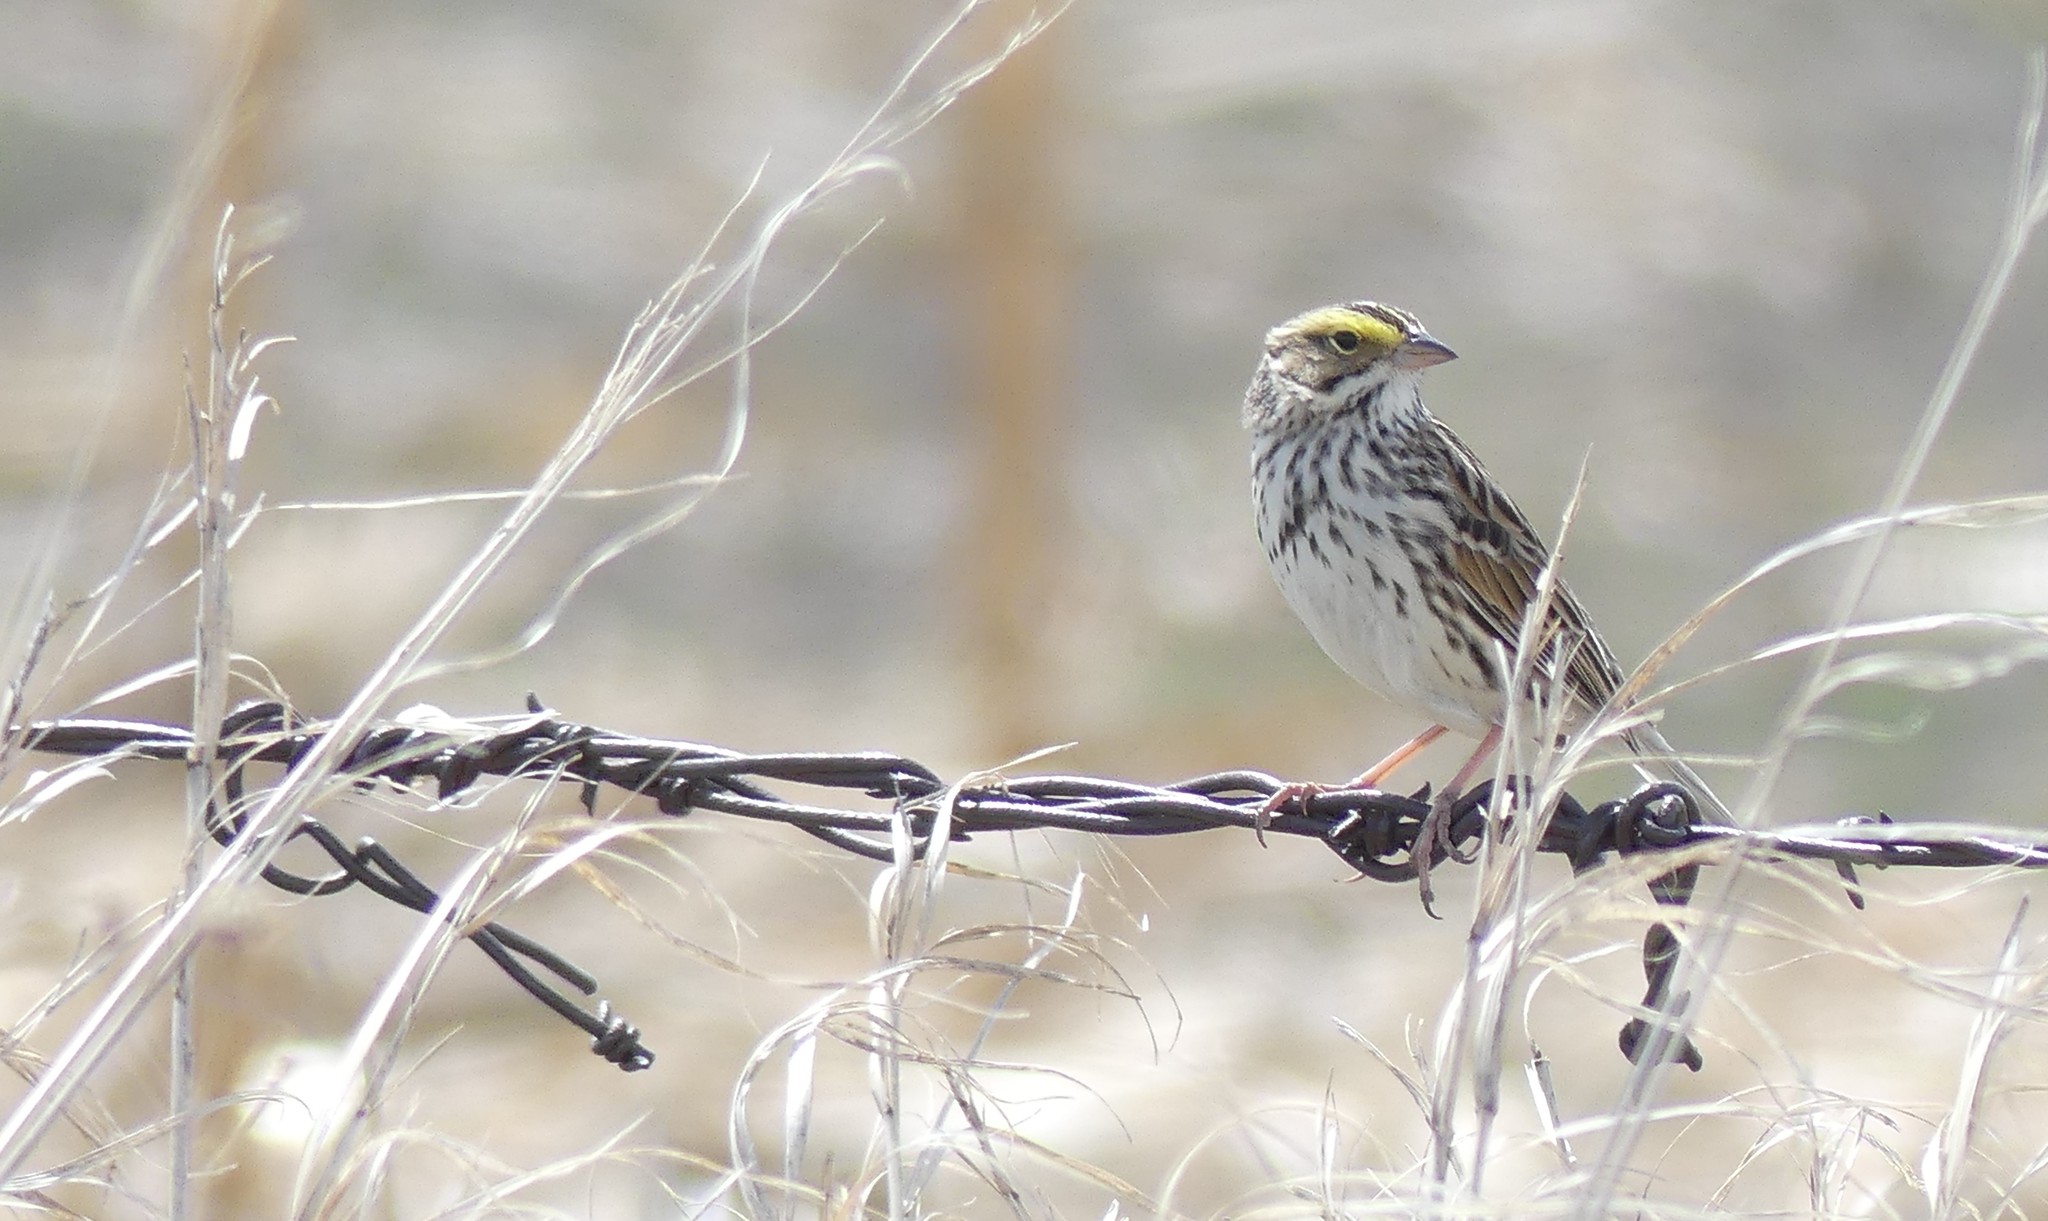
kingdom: Animalia
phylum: Chordata
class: Aves
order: Passeriformes
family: Passerellidae
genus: Passerculus
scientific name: Passerculus sandwichensis
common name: Savannah sparrow
